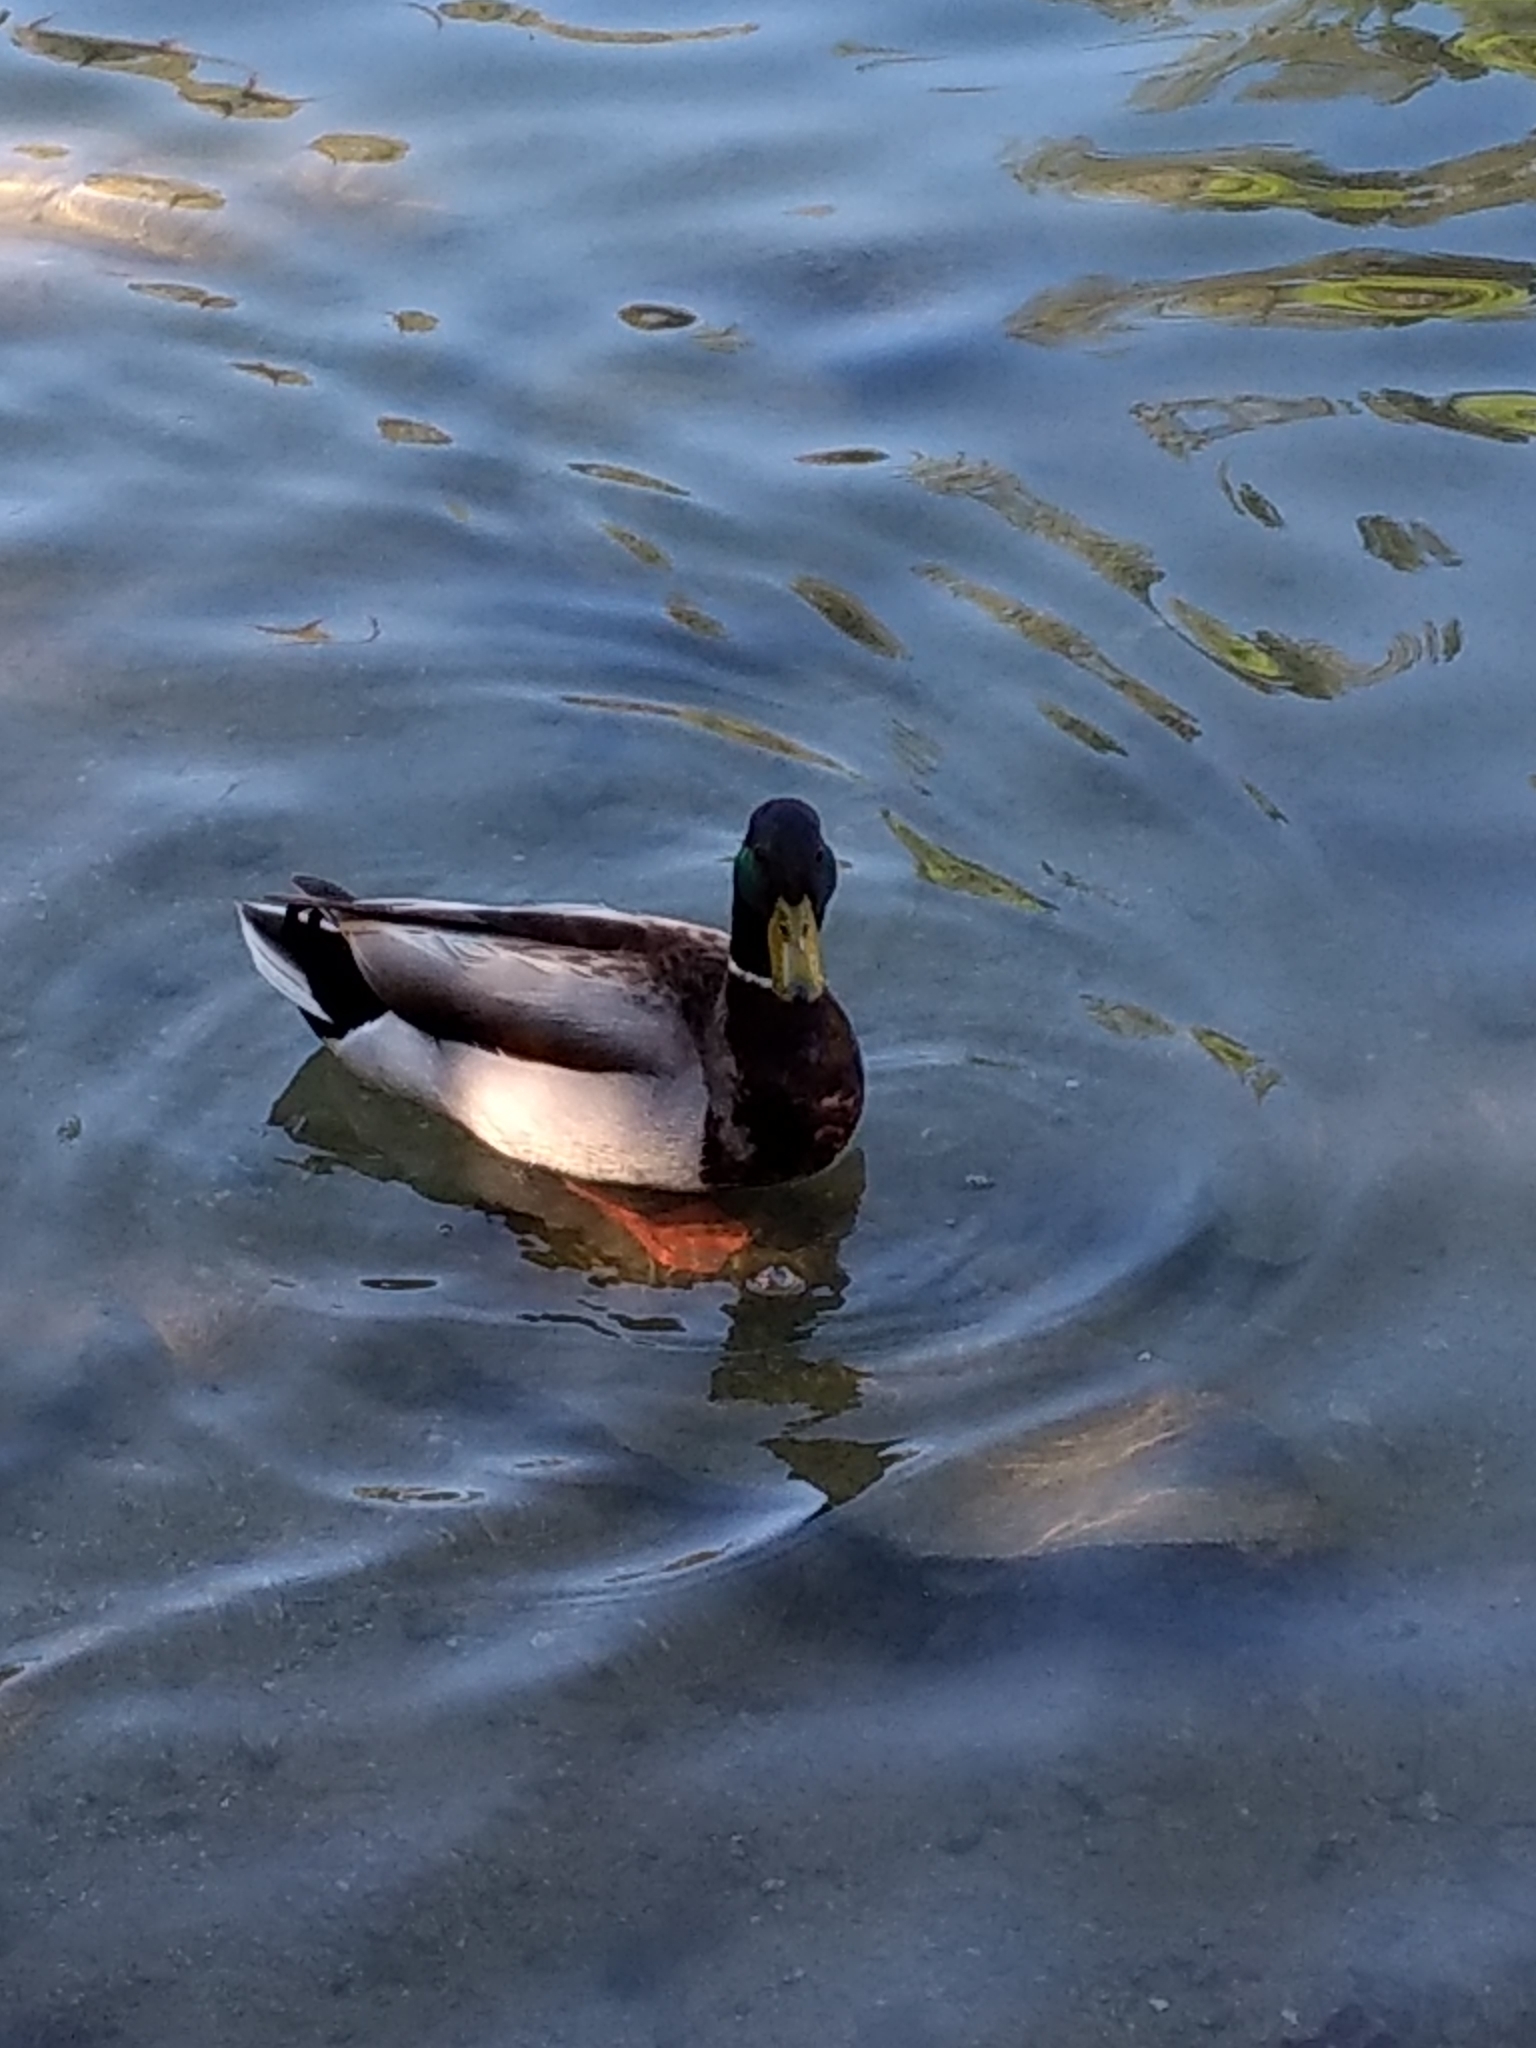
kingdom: Animalia
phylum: Chordata
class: Aves
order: Anseriformes
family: Anatidae
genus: Anas
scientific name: Anas platyrhynchos
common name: Mallard
